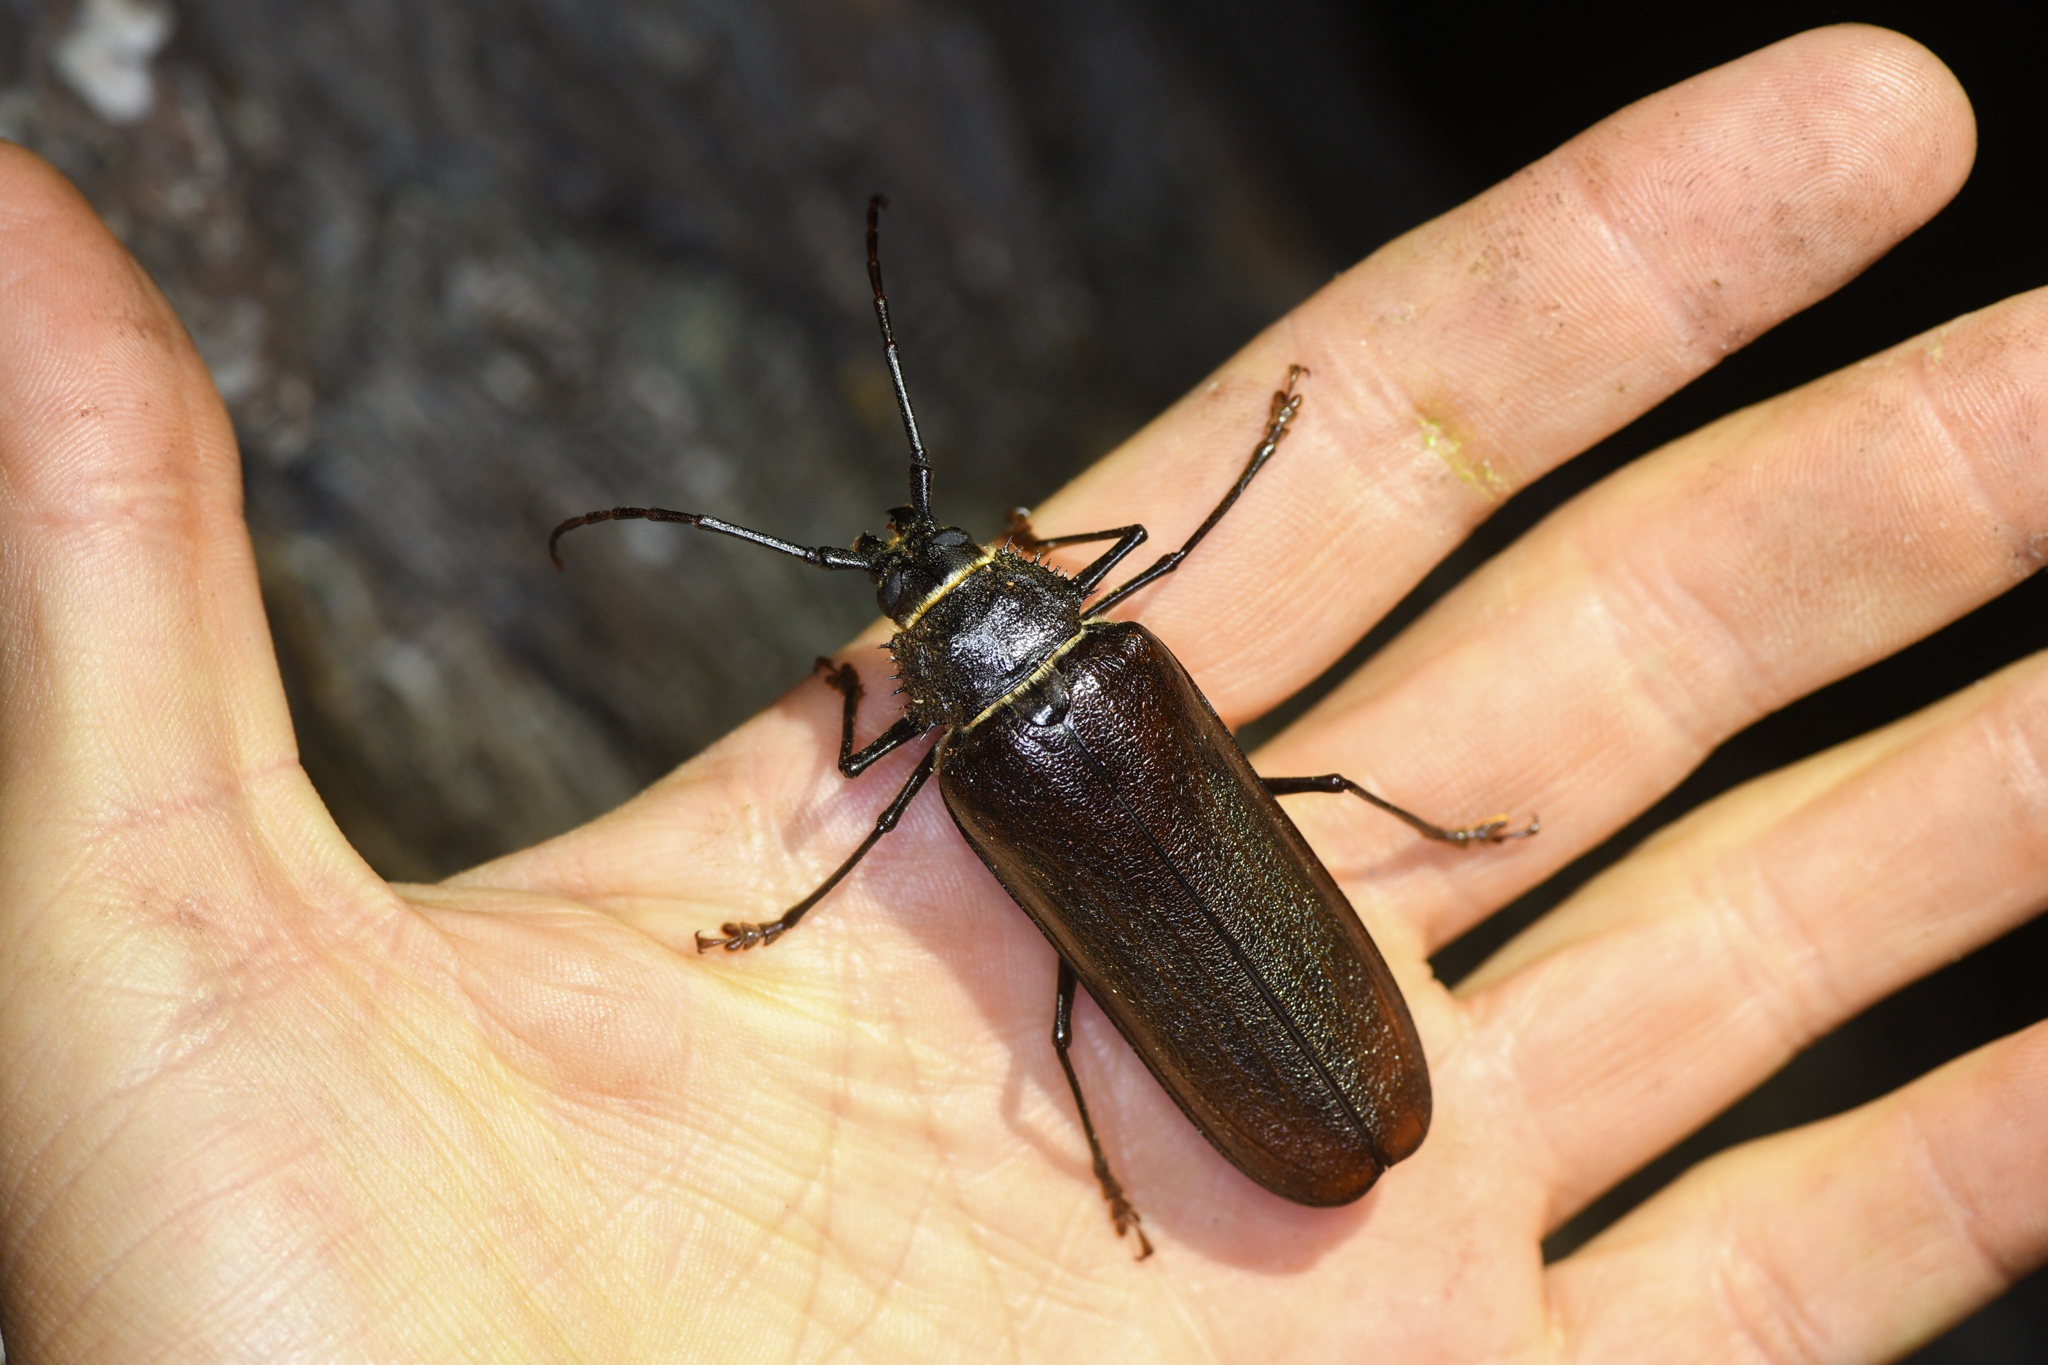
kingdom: Animalia
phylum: Arthropoda
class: Insecta
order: Coleoptera
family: Cerambycidae
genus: Trichocnemis
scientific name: Trichocnemis spiculatus
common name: Long-horned beetle
